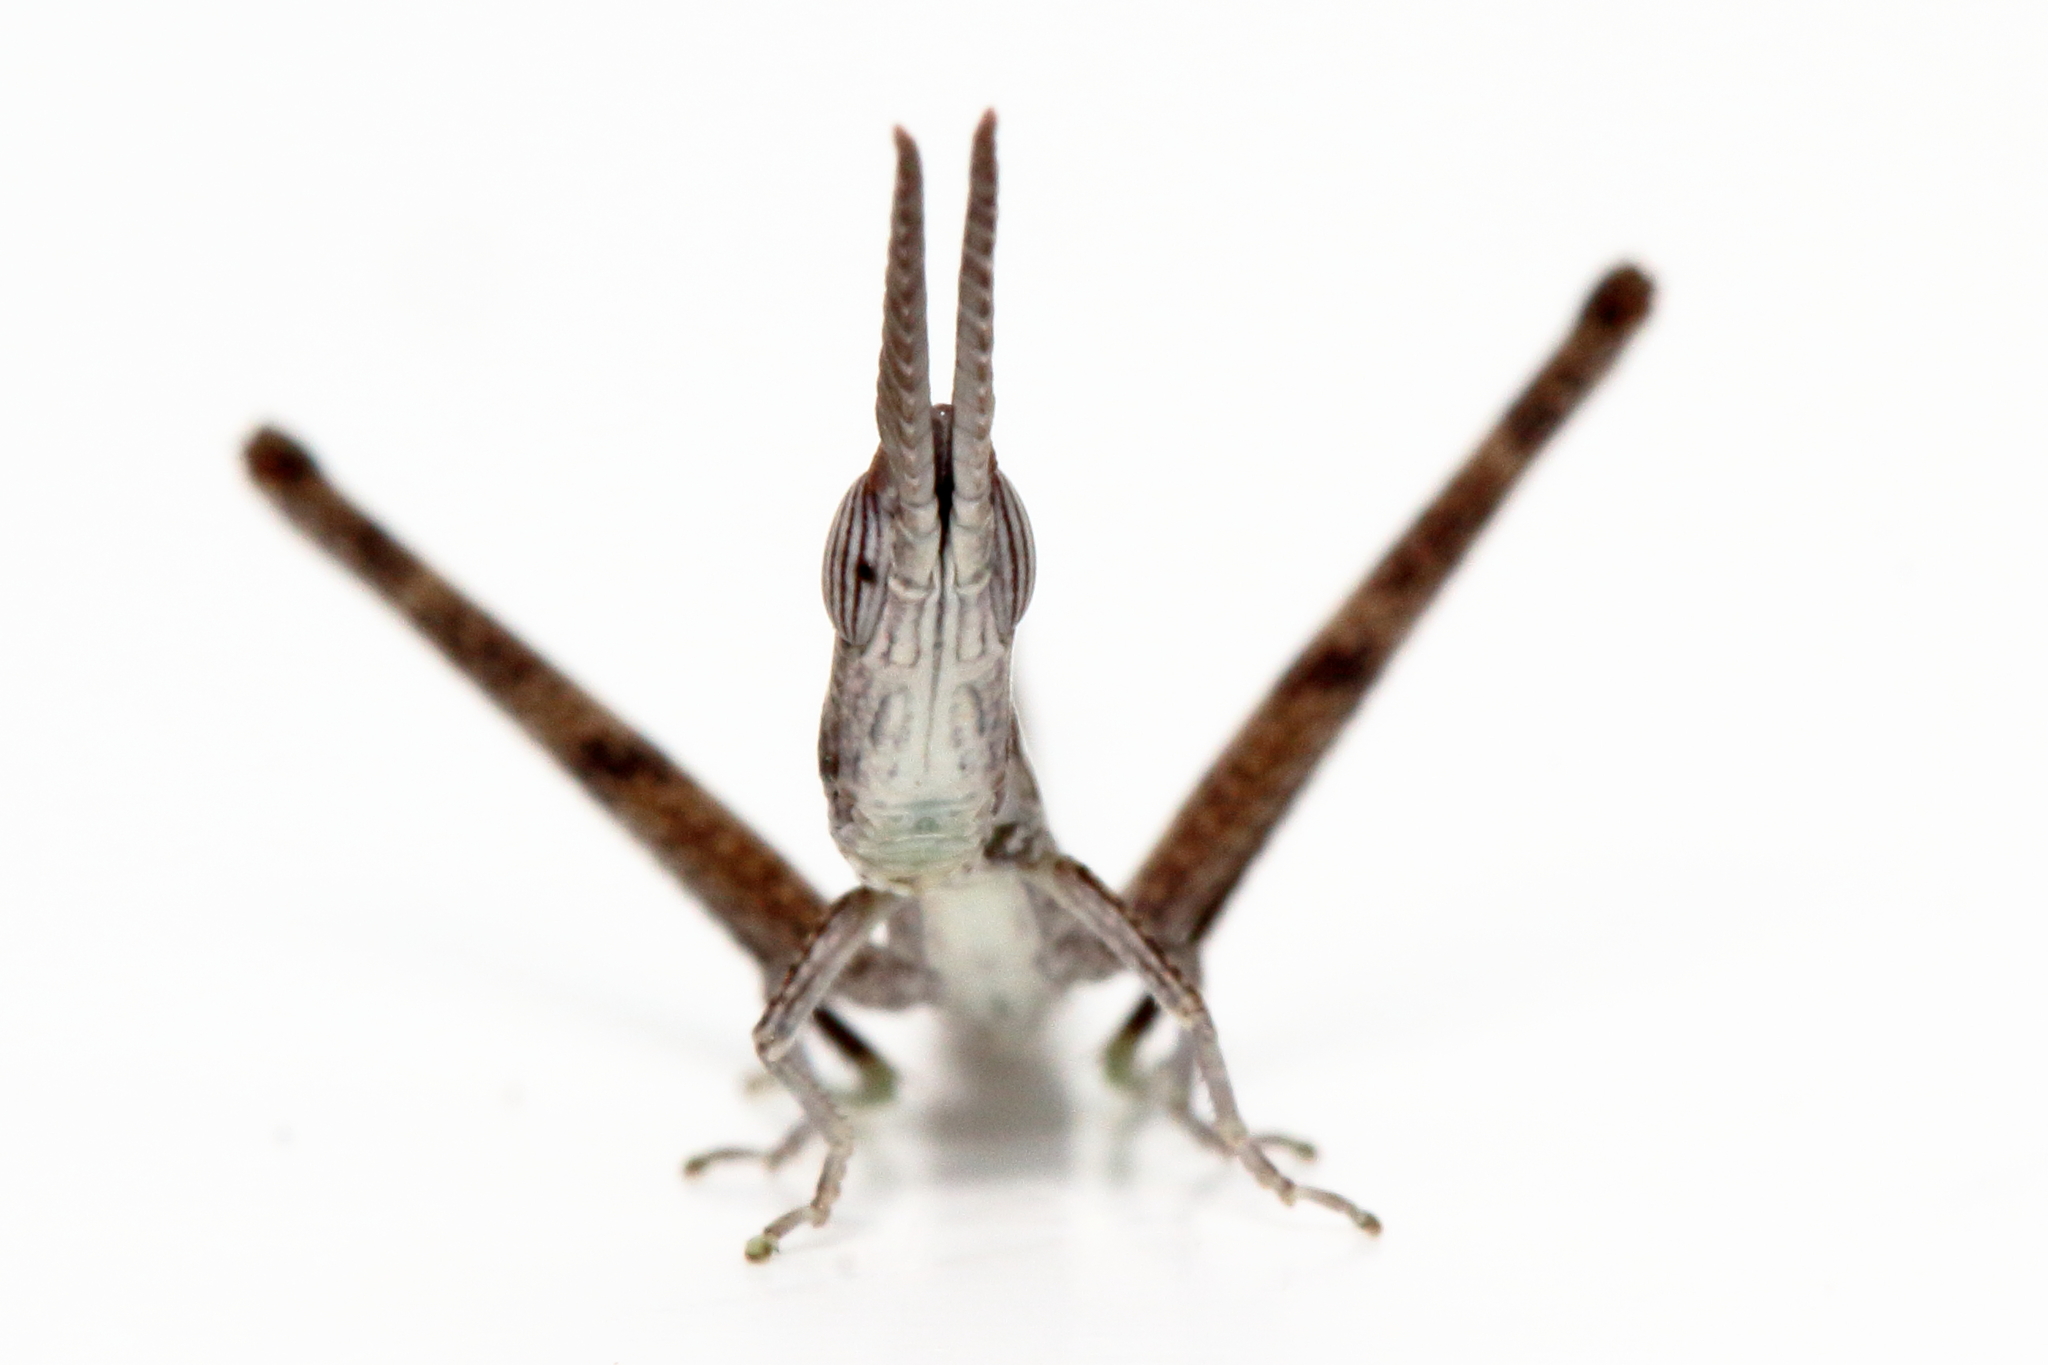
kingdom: Animalia
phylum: Arthropoda
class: Insecta
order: Orthoptera
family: Morabidae
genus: Warramaba
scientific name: Warramaba grandis
